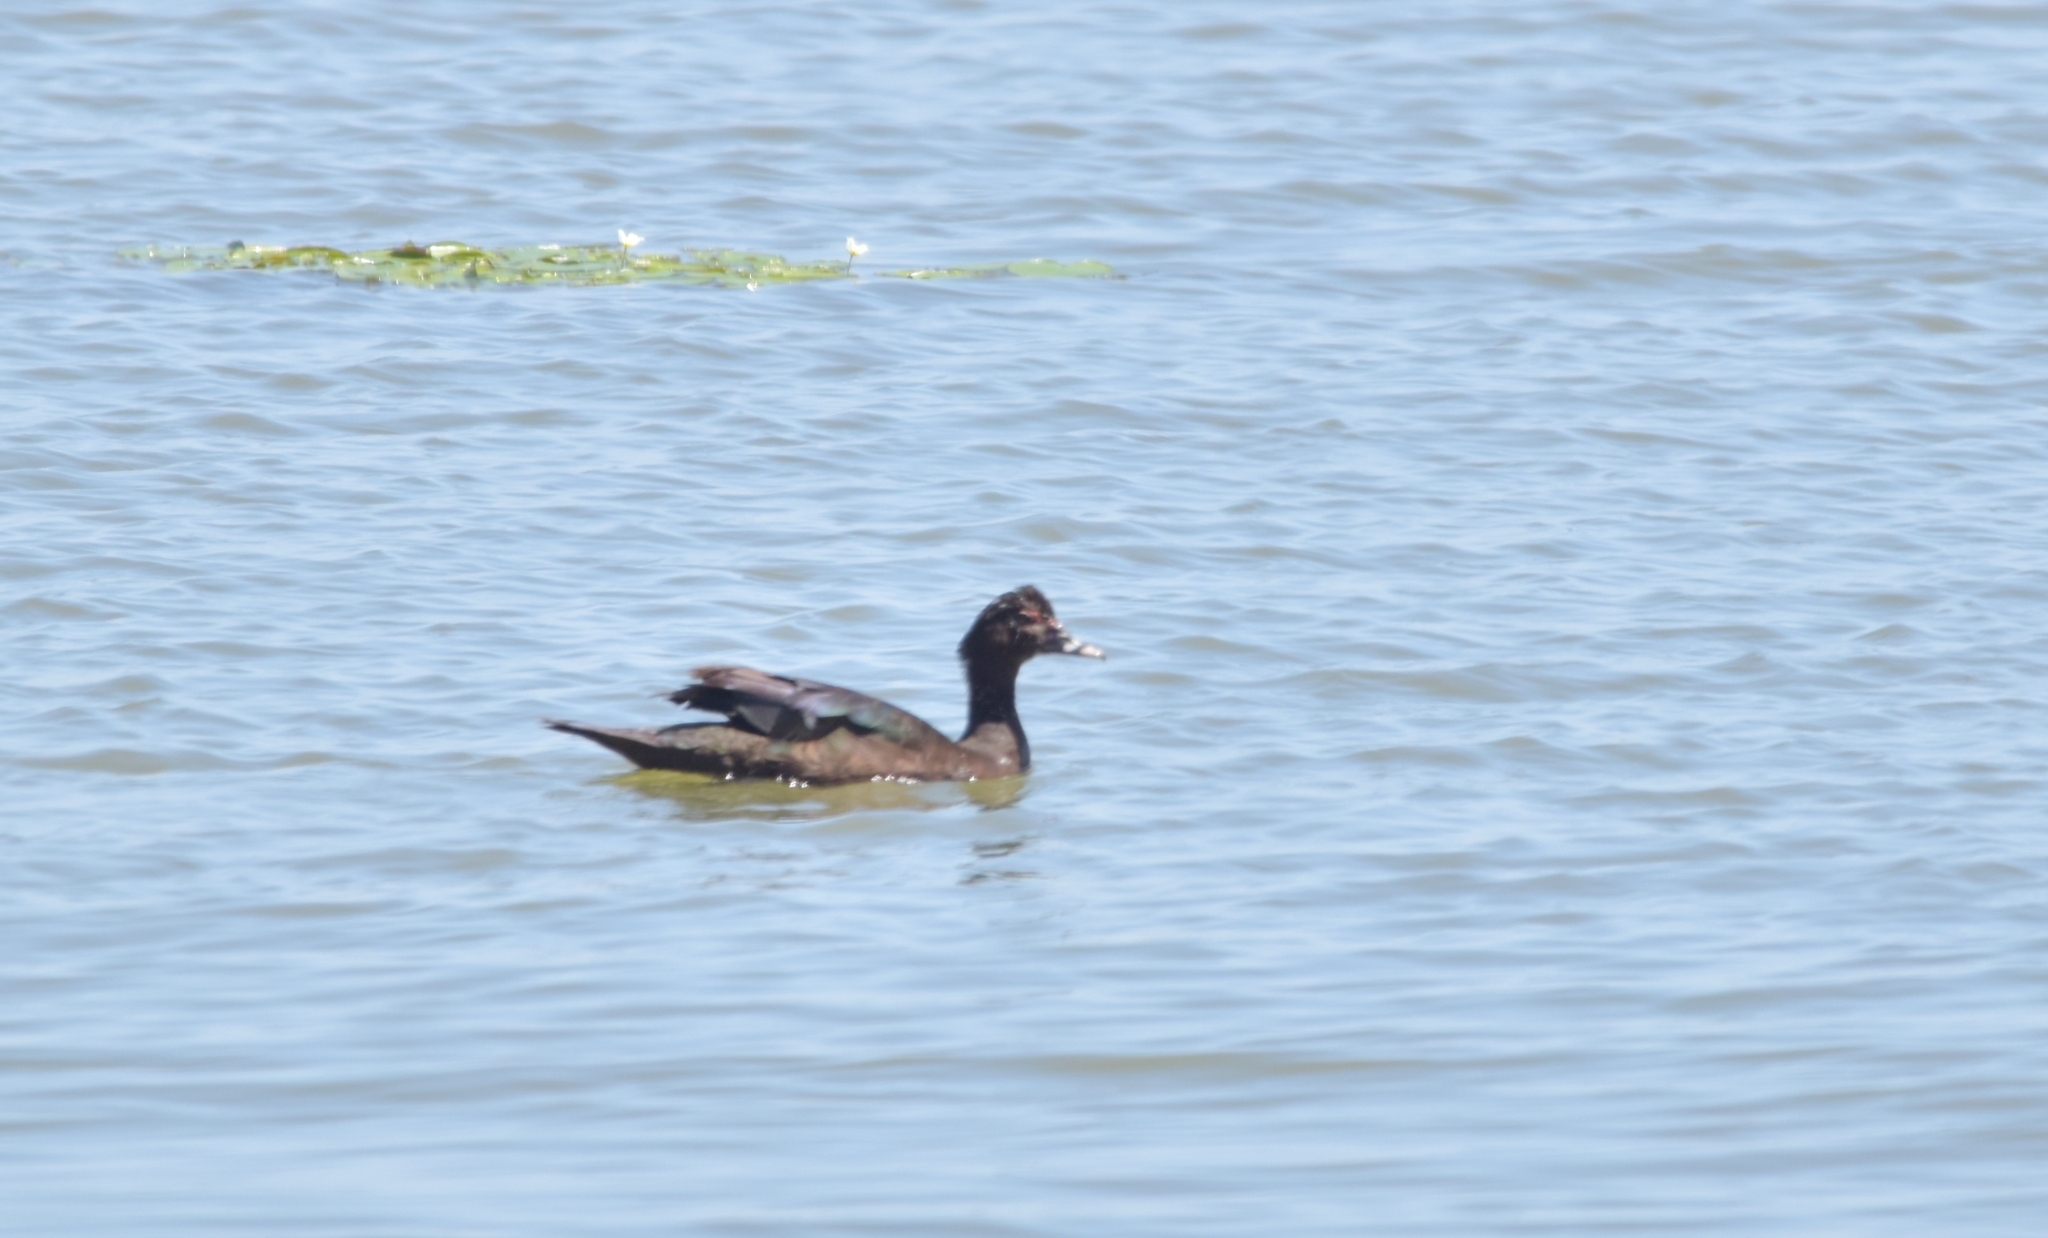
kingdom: Animalia
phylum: Chordata
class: Aves
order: Anseriformes
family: Anatidae
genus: Cairina
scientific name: Cairina moschata
